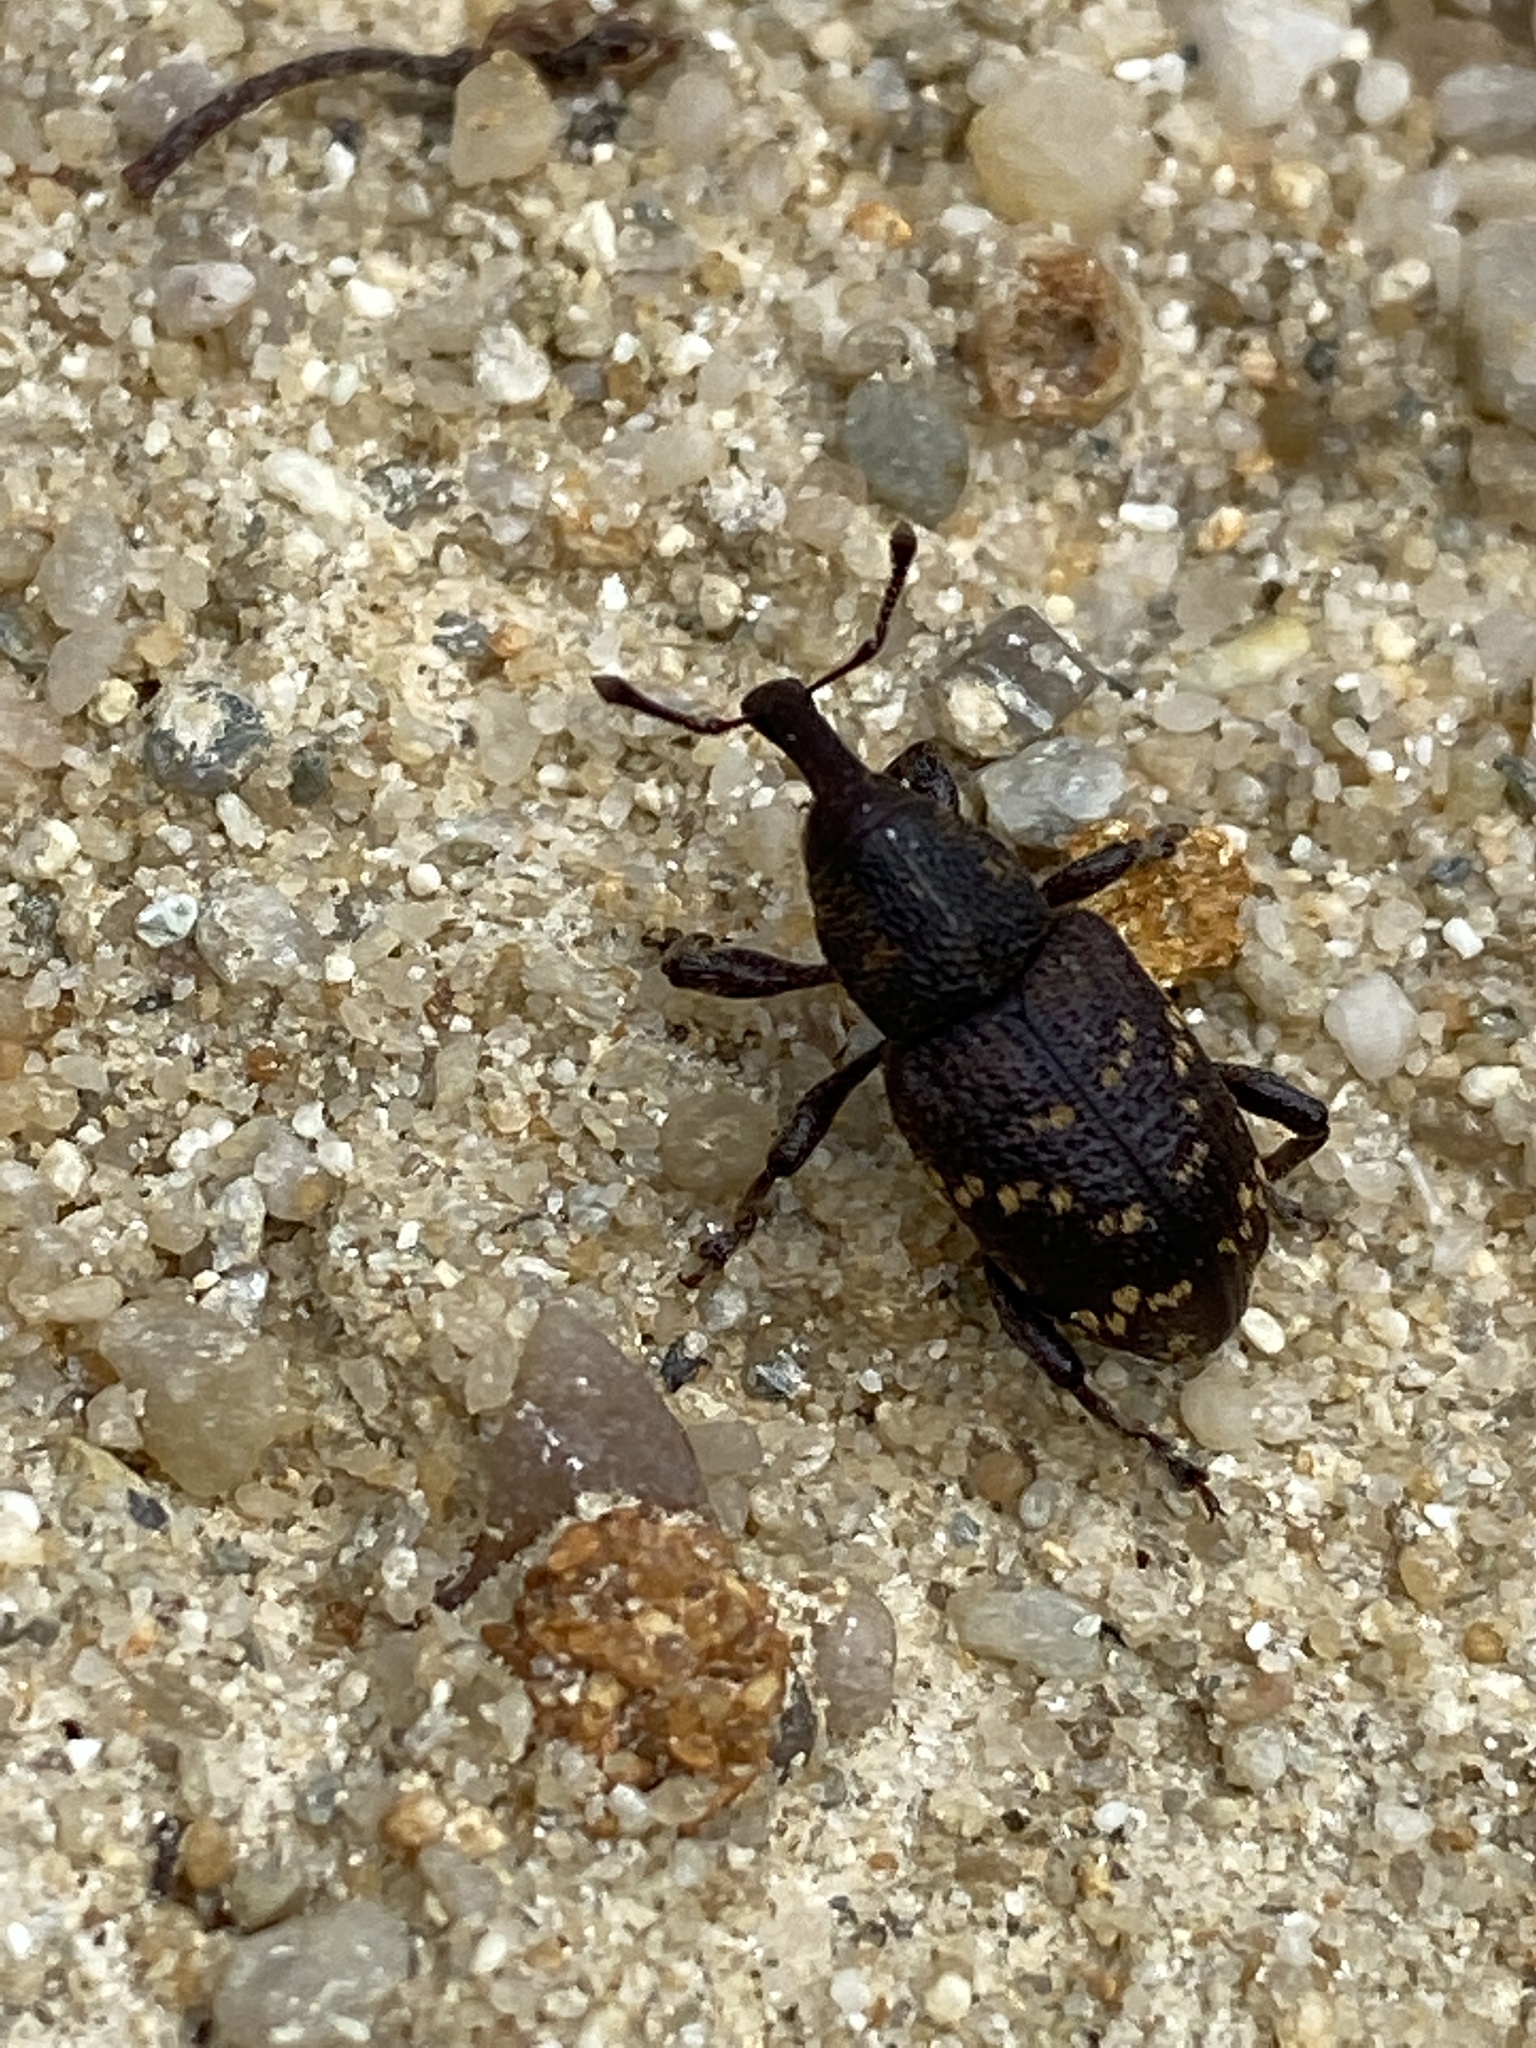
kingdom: Animalia
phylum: Arthropoda
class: Insecta
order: Coleoptera
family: Curculionidae
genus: Hylobius
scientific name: Hylobius abietis
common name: Large pine weevil
